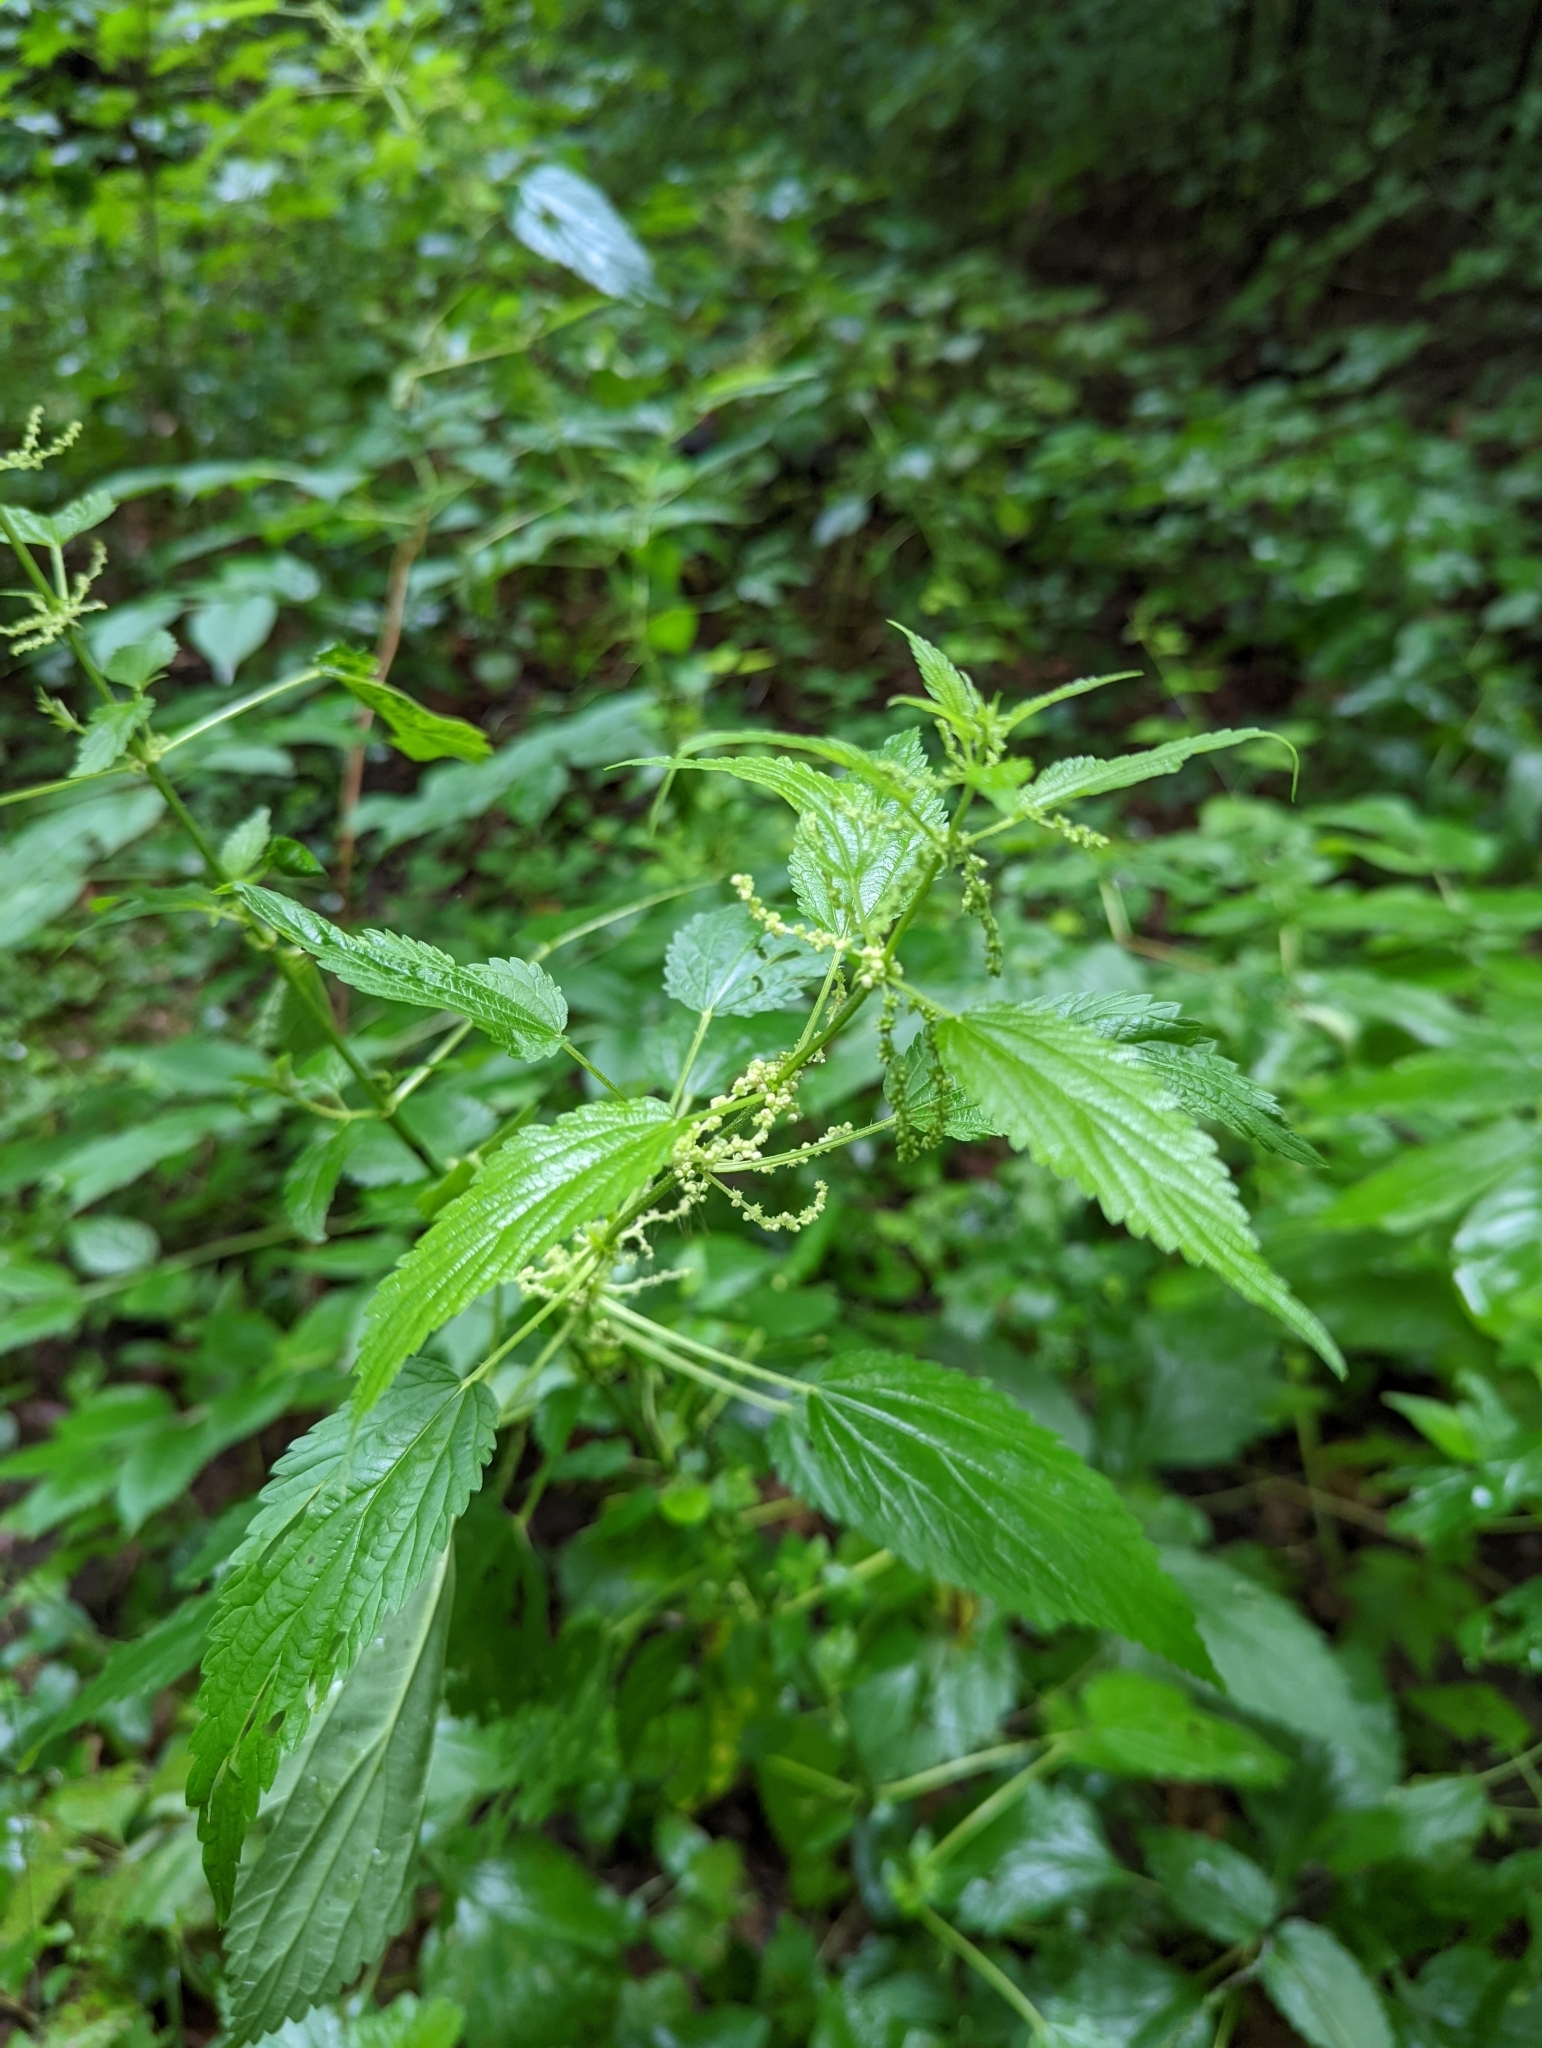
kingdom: Plantae
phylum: Tracheophyta
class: Magnoliopsida
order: Rosales
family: Urticaceae
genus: Urtica
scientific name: Urtica gracilis
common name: Slender stinging nettle
